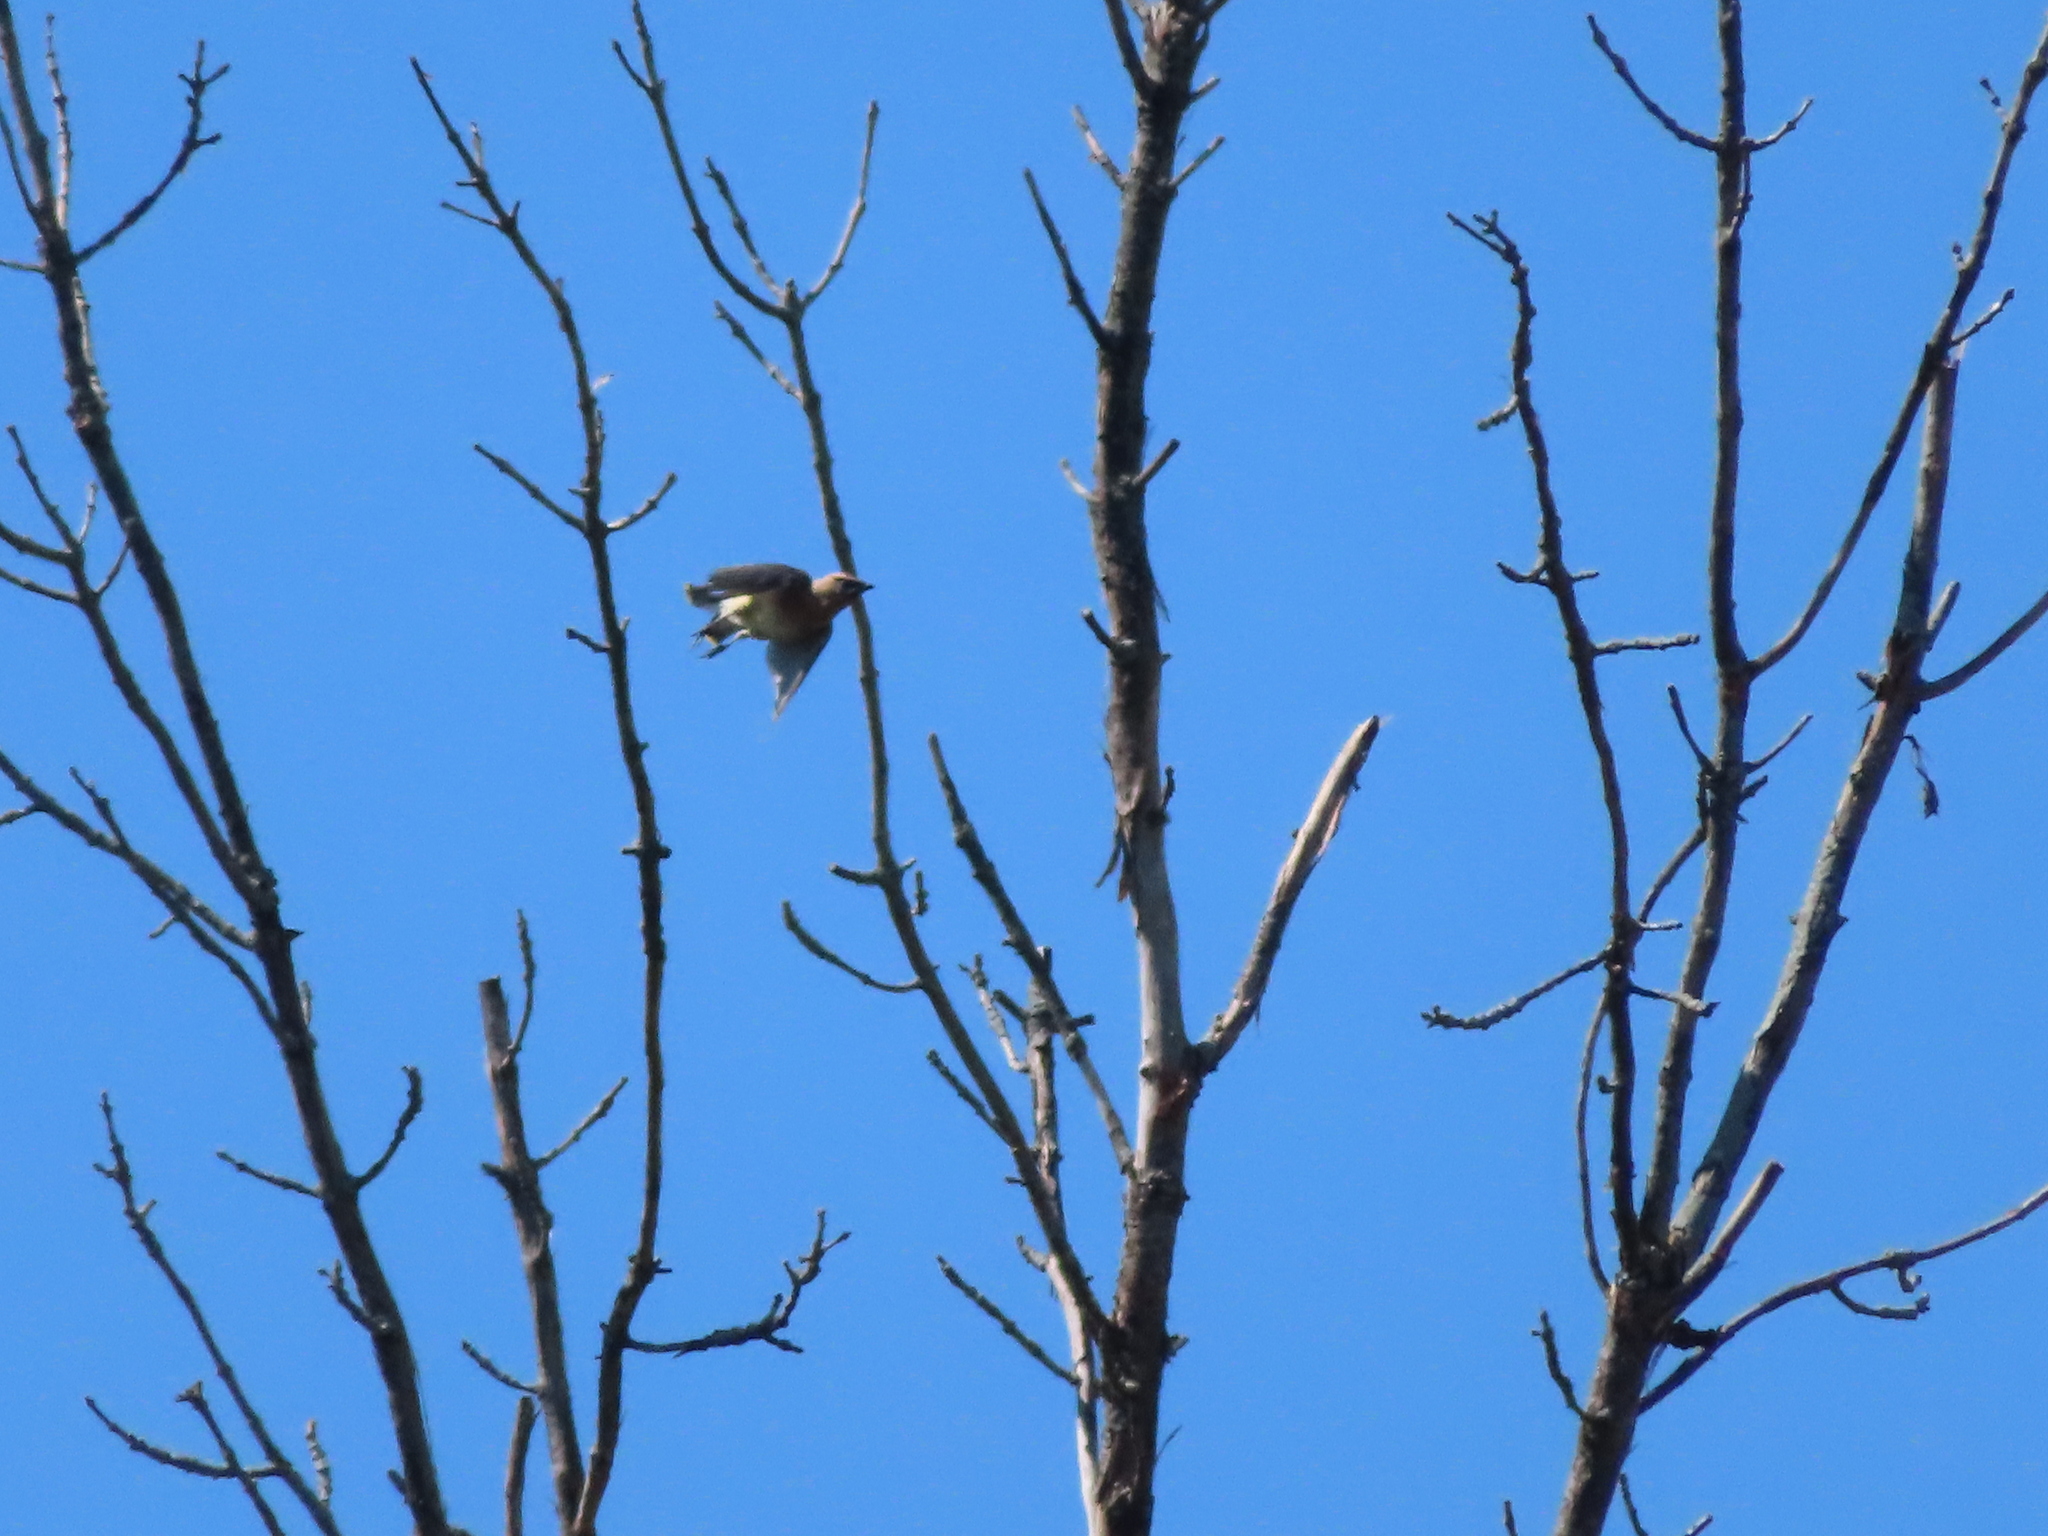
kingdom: Animalia
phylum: Chordata
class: Aves
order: Passeriformes
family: Bombycillidae
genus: Bombycilla
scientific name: Bombycilla cedrorum
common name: Cedar waxwing
